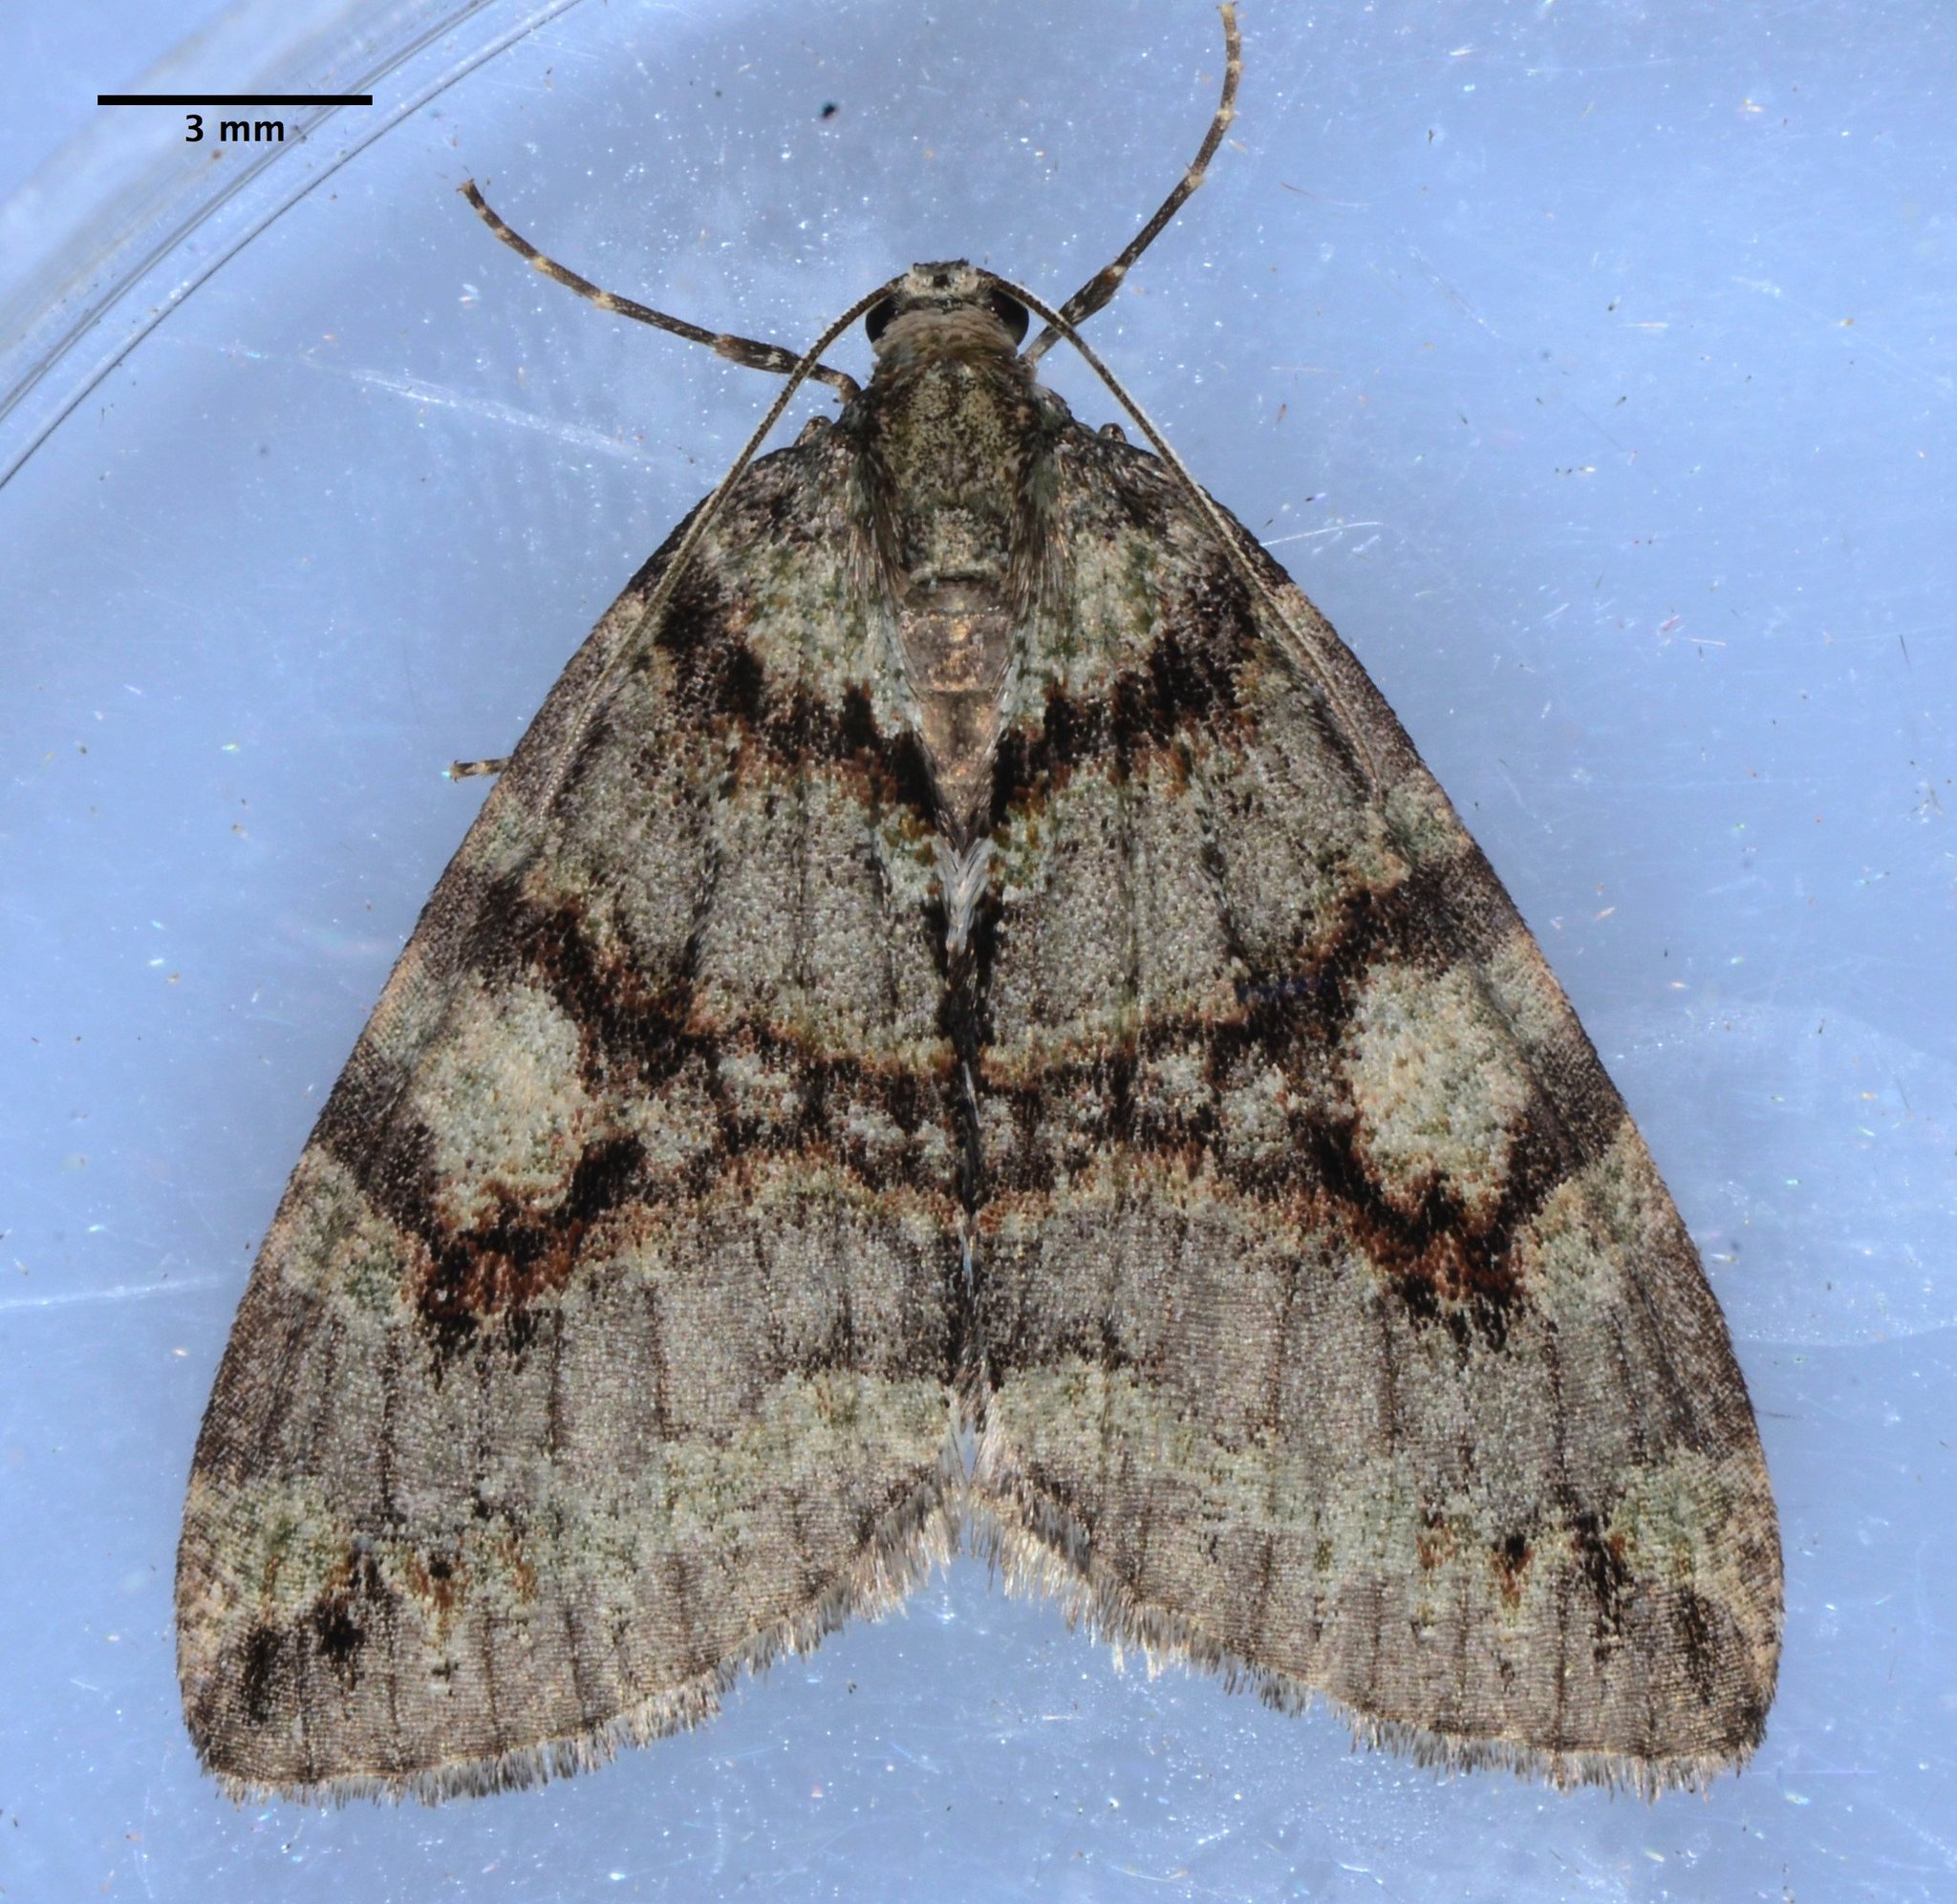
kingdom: Animalia
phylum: Arthropoda
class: Insecta
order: Lepidoptera
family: Geometridae
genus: Hydriomena
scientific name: Hydriomena nubilofasciata
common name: Oak winter highflier moth
